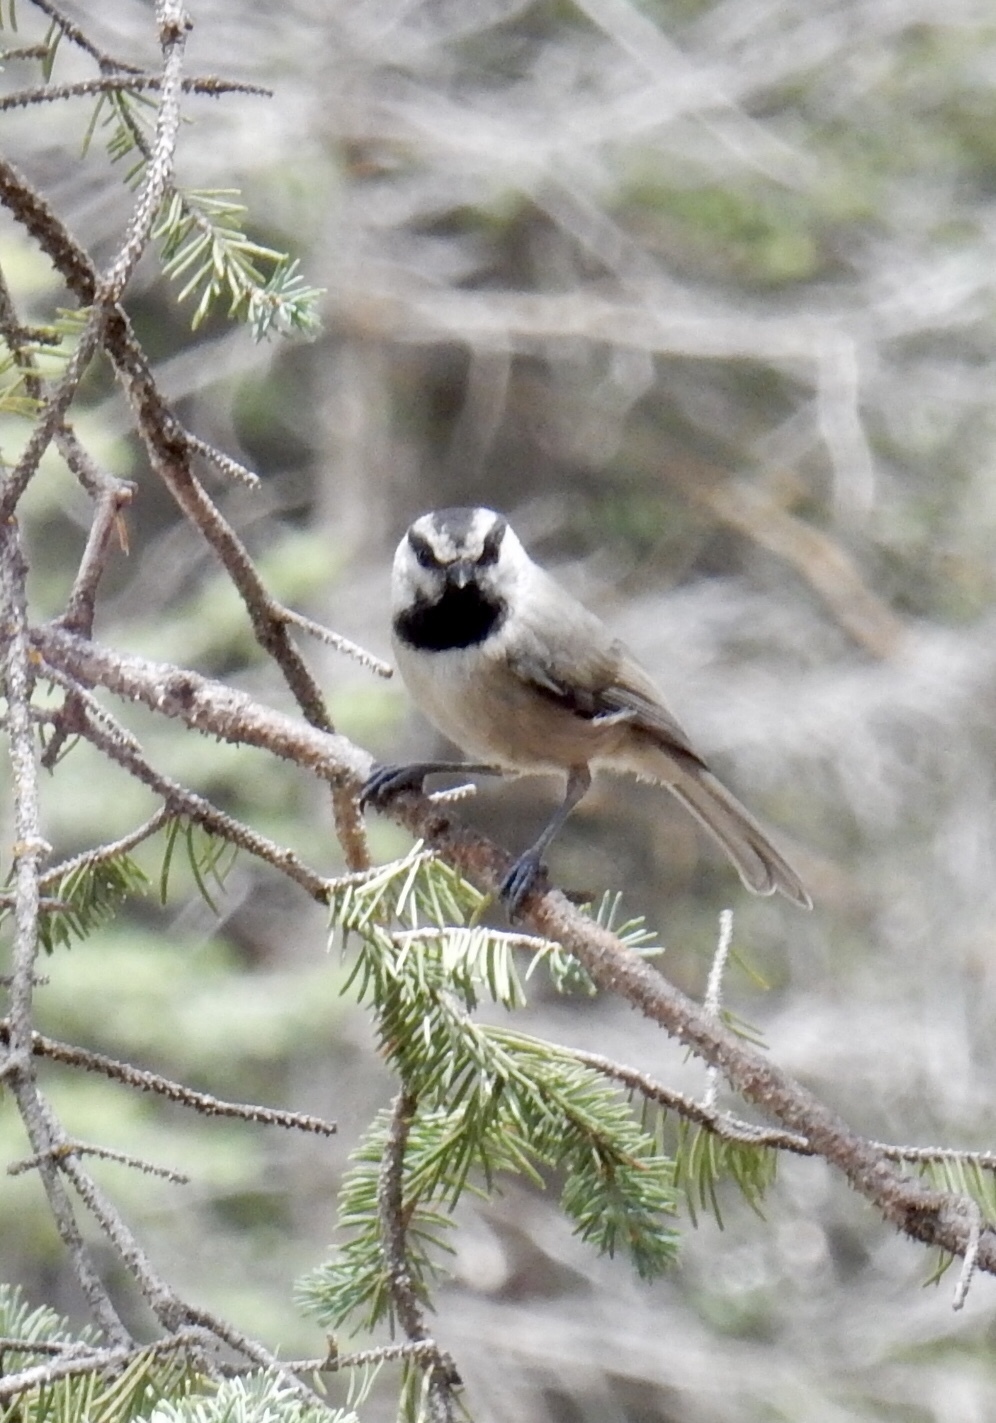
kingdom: Animalia
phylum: Chordata
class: Aves
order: Passeriformes
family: Paridae
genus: Poecile
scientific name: Poecile gambeli
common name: Mountain chickadee
